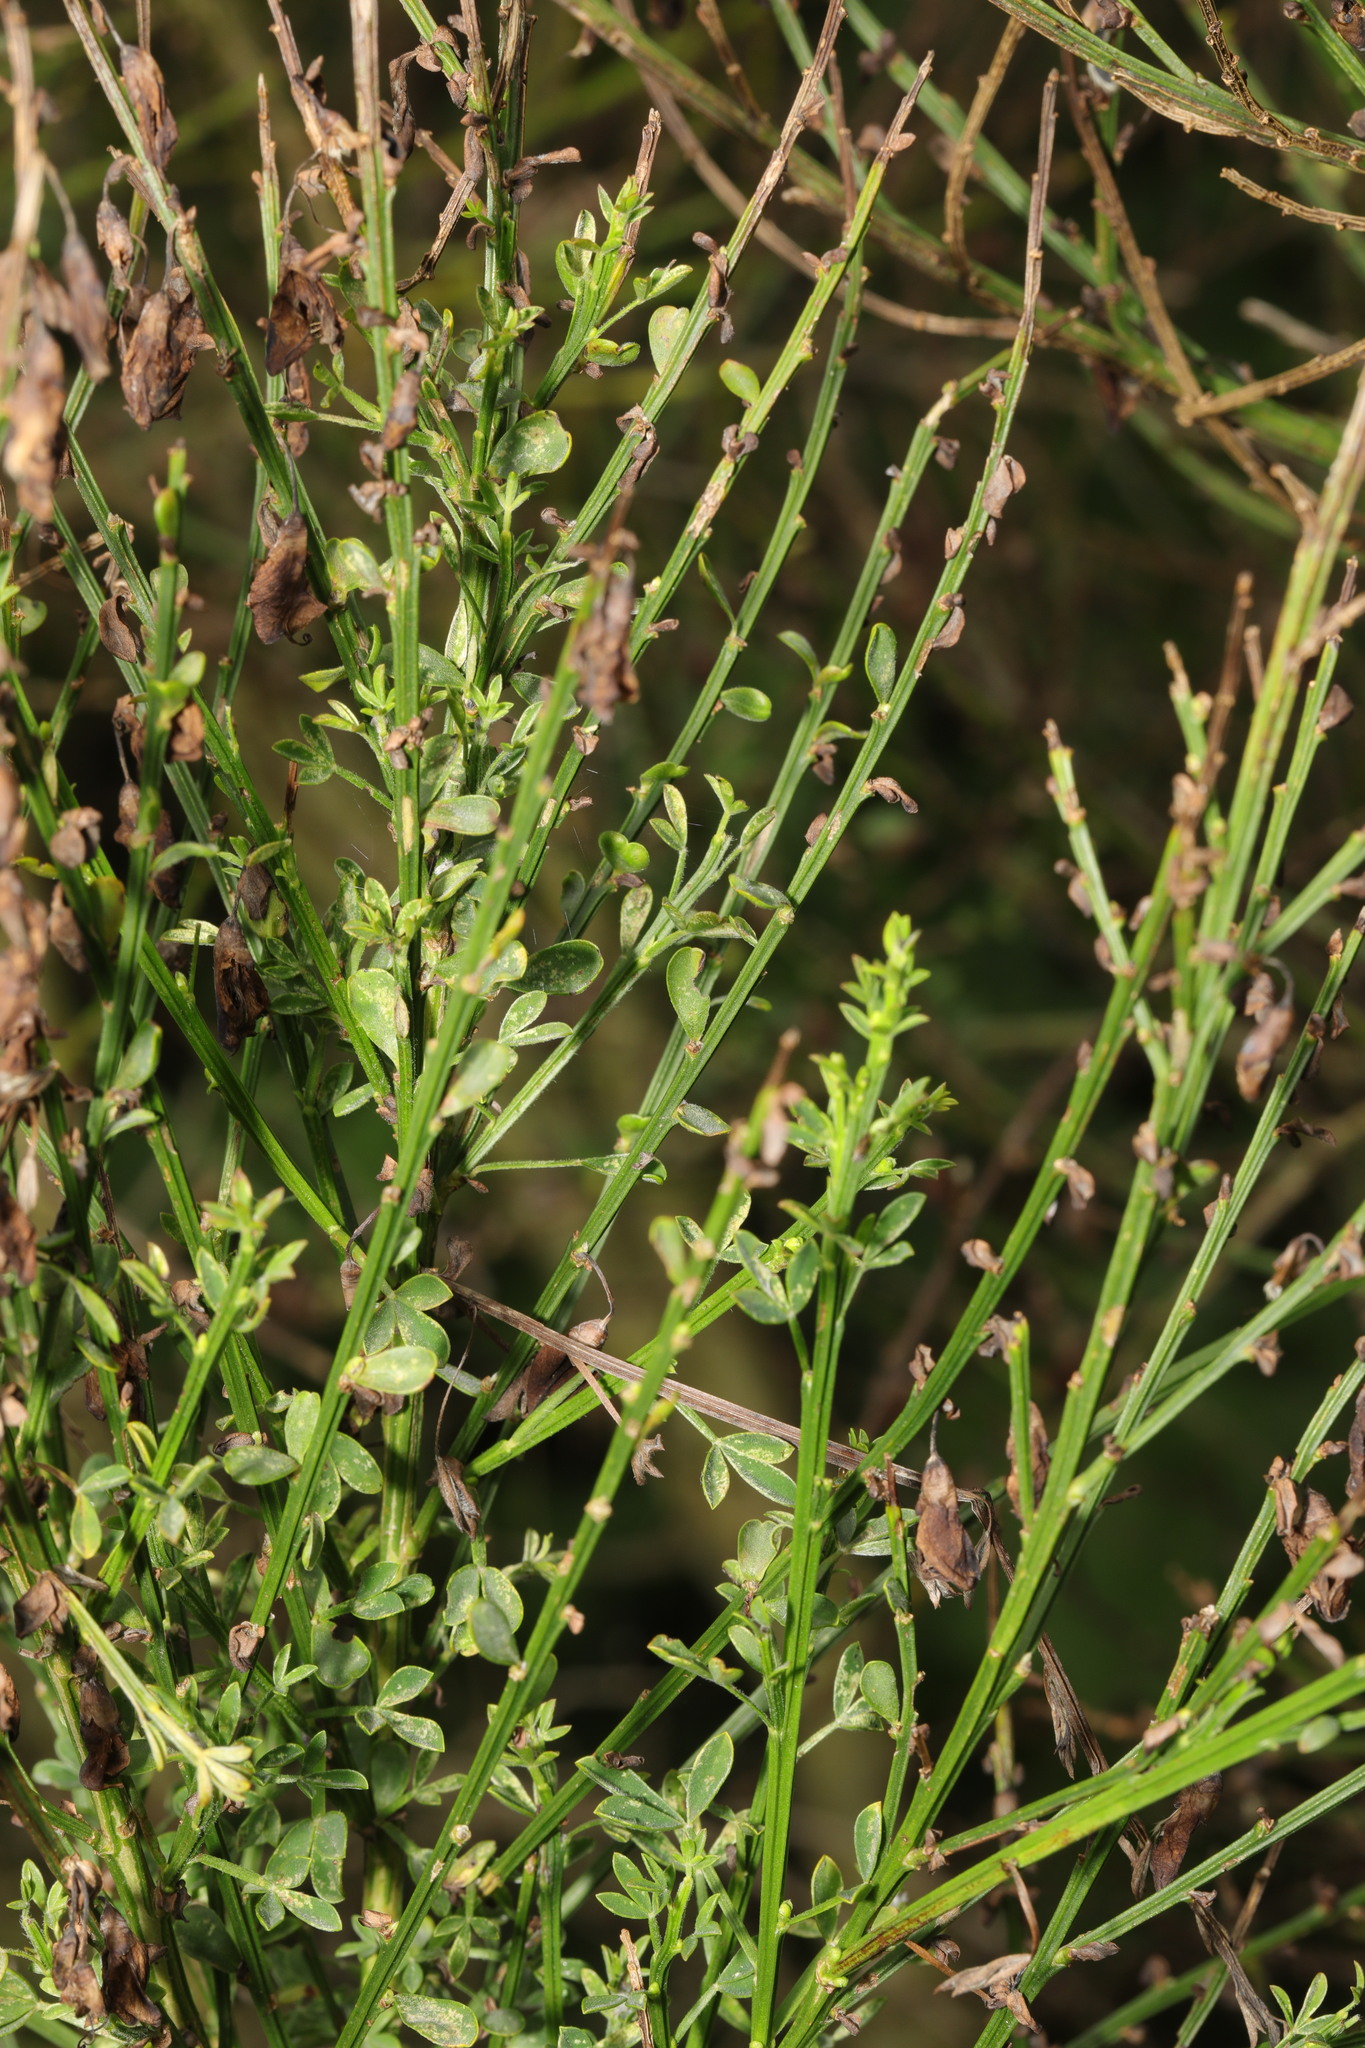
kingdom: Plantae
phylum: Tracheophyta
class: Magnoliopsida
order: Fabales
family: Fabaceae
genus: Cytisus
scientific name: Cytisus scoparius
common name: Scotch broom
